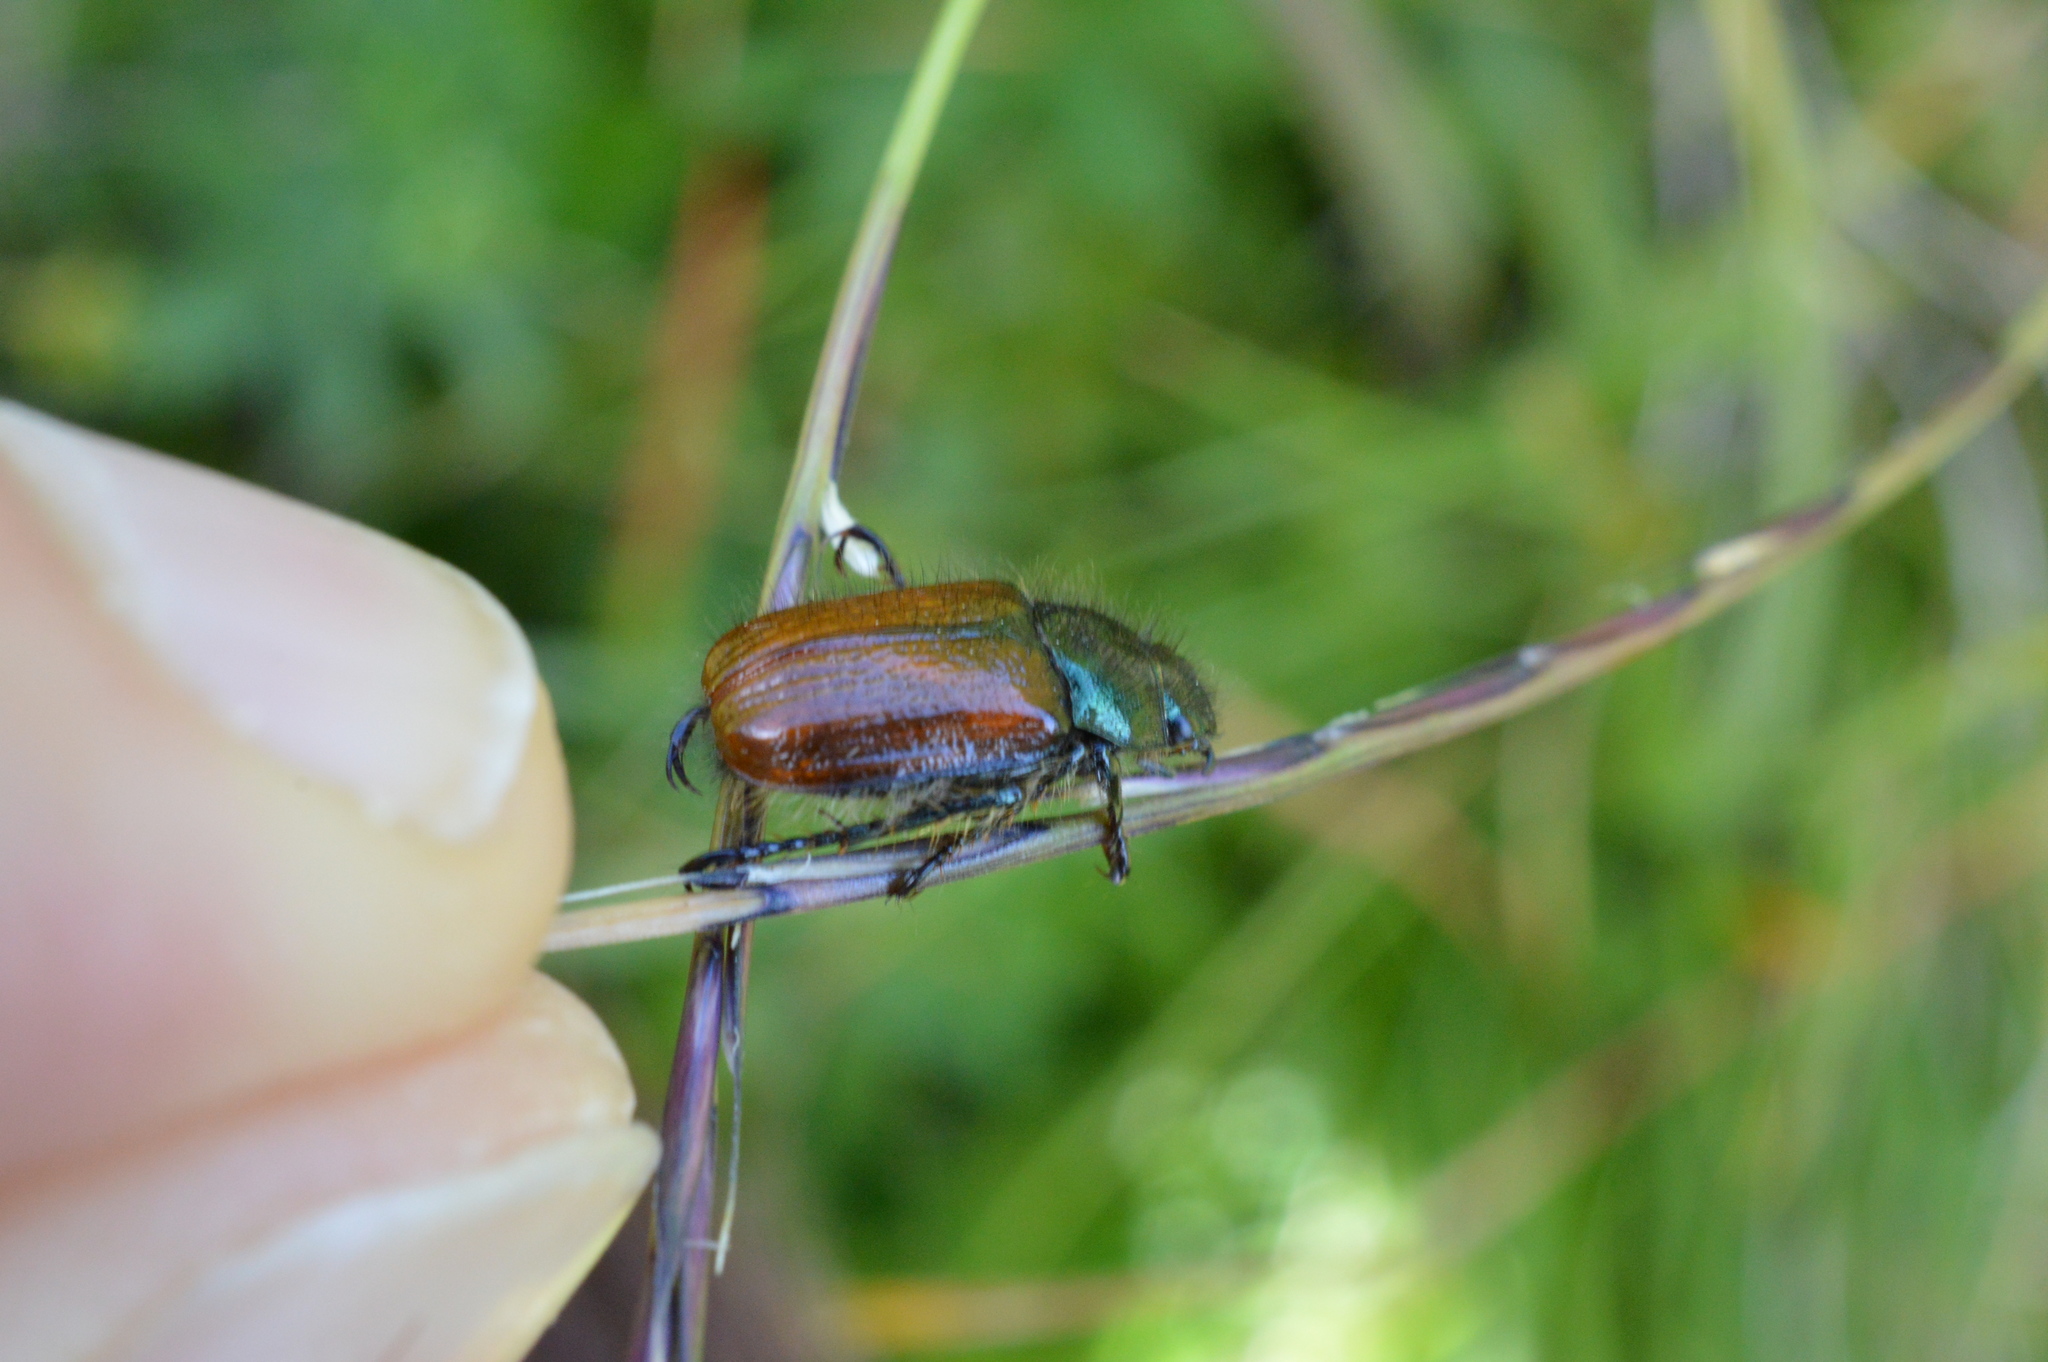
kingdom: Animalia
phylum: Arthropoda
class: Insecta
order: Coleoptera
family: Scarabaeidae
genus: Phyllopertha
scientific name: Phyllopertha horticola
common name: Garden chafer
